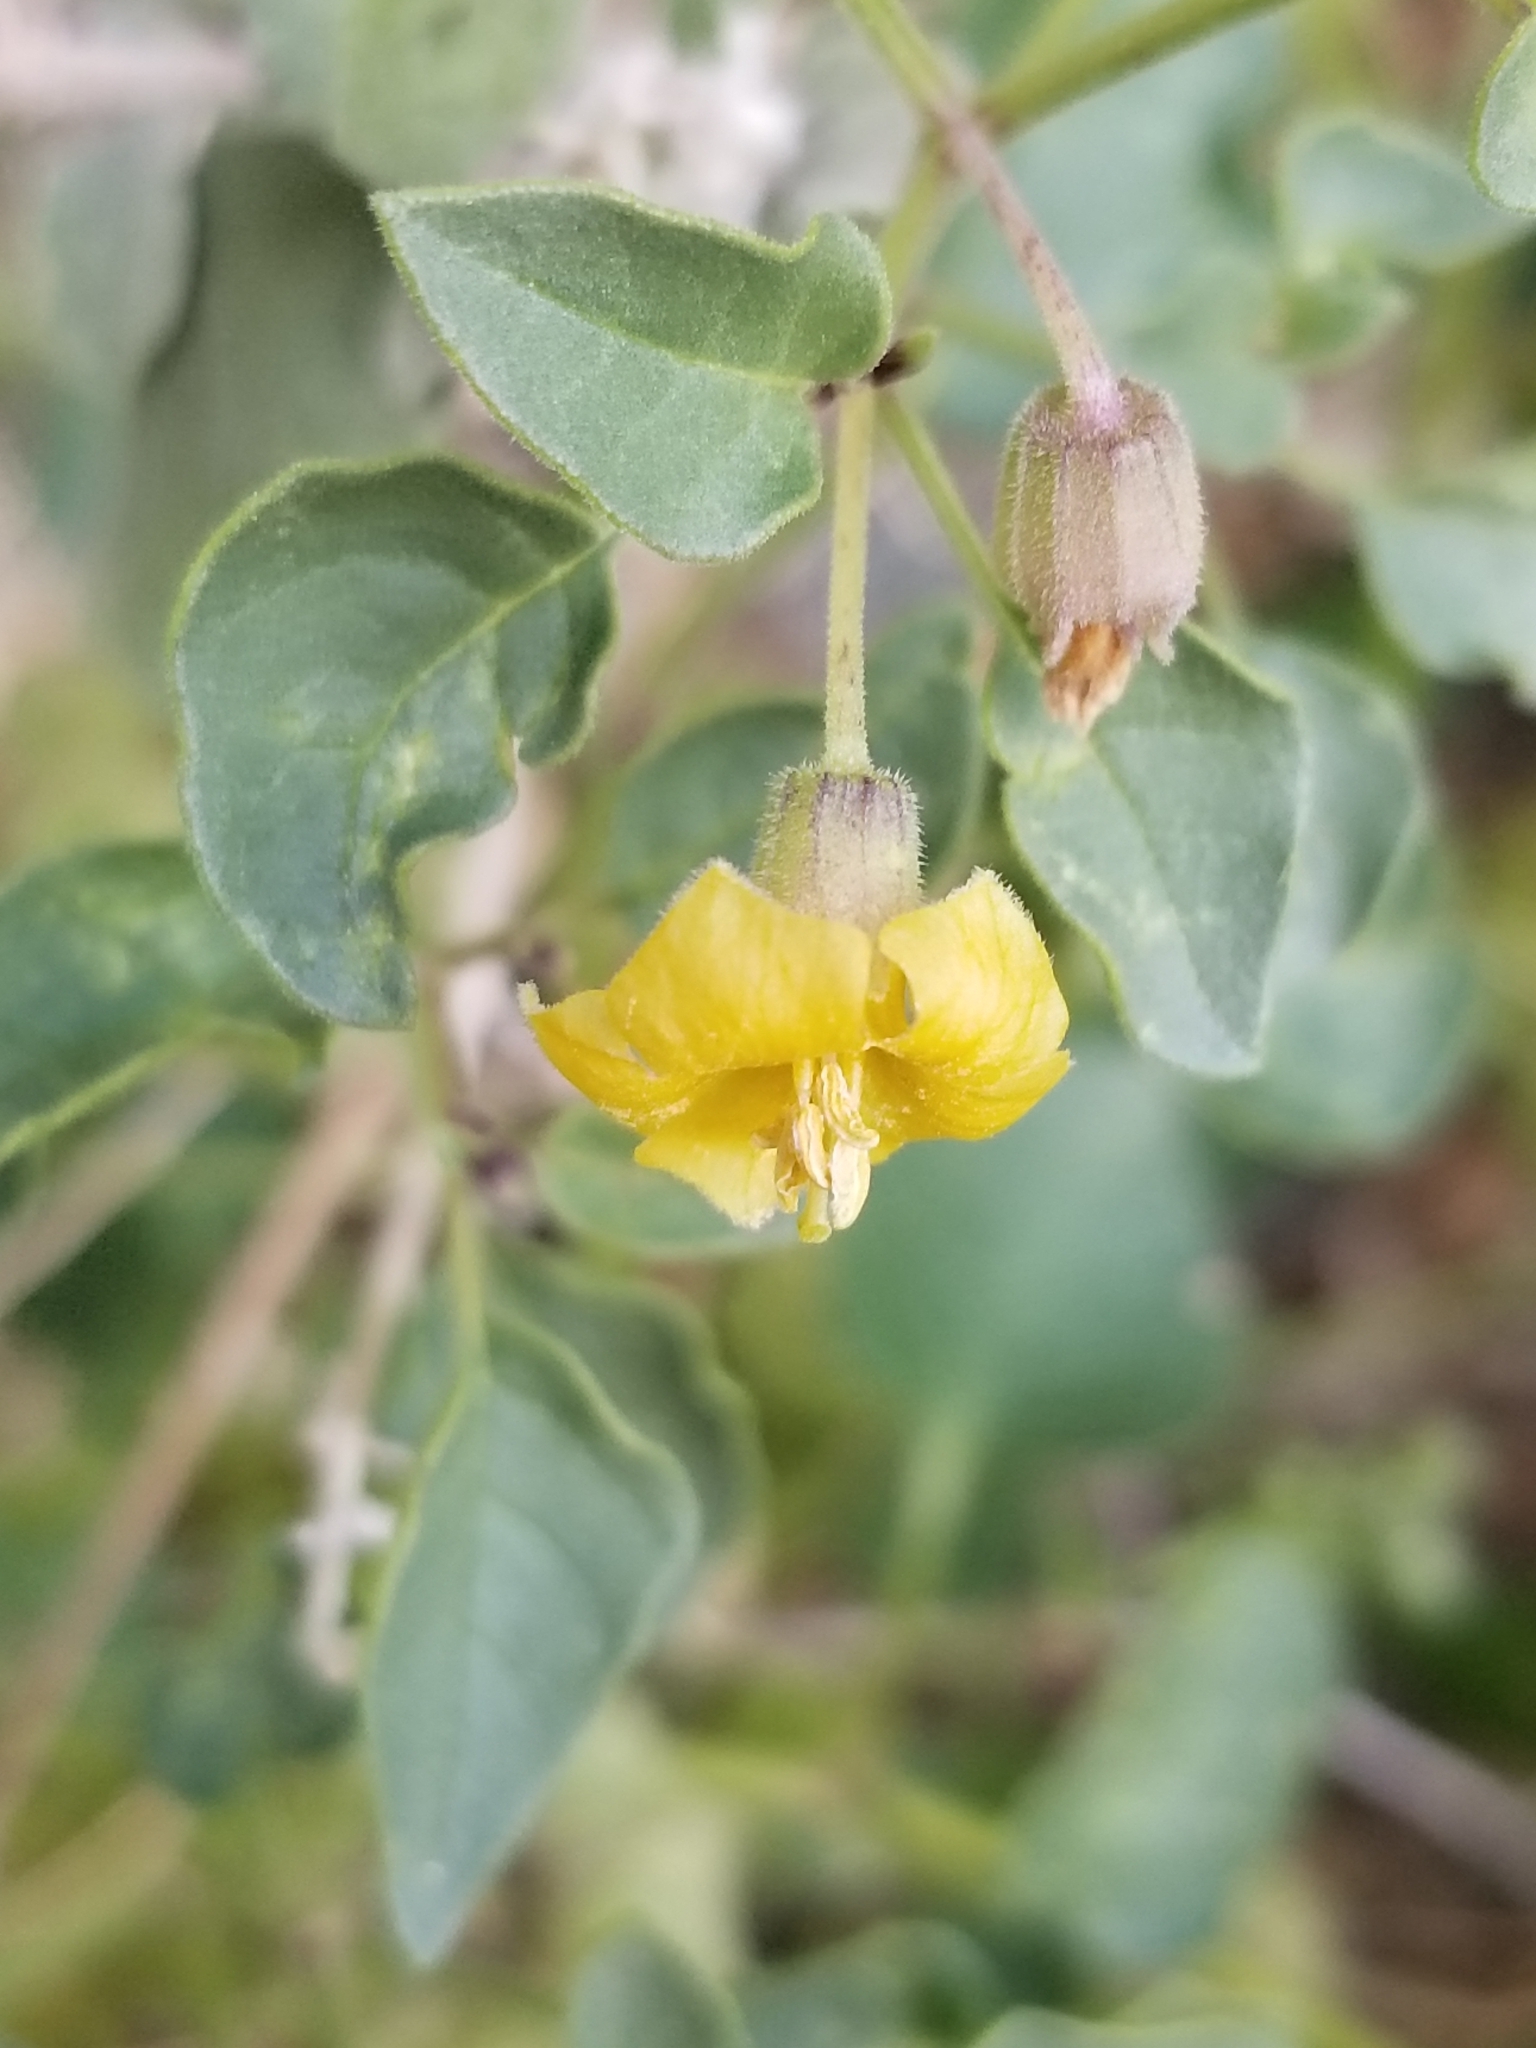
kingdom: Plantae
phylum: Tracheophyta
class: Magnoliopsida
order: Solanales
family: Solanaceae
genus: Physalis
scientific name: Physalis crassifolia
